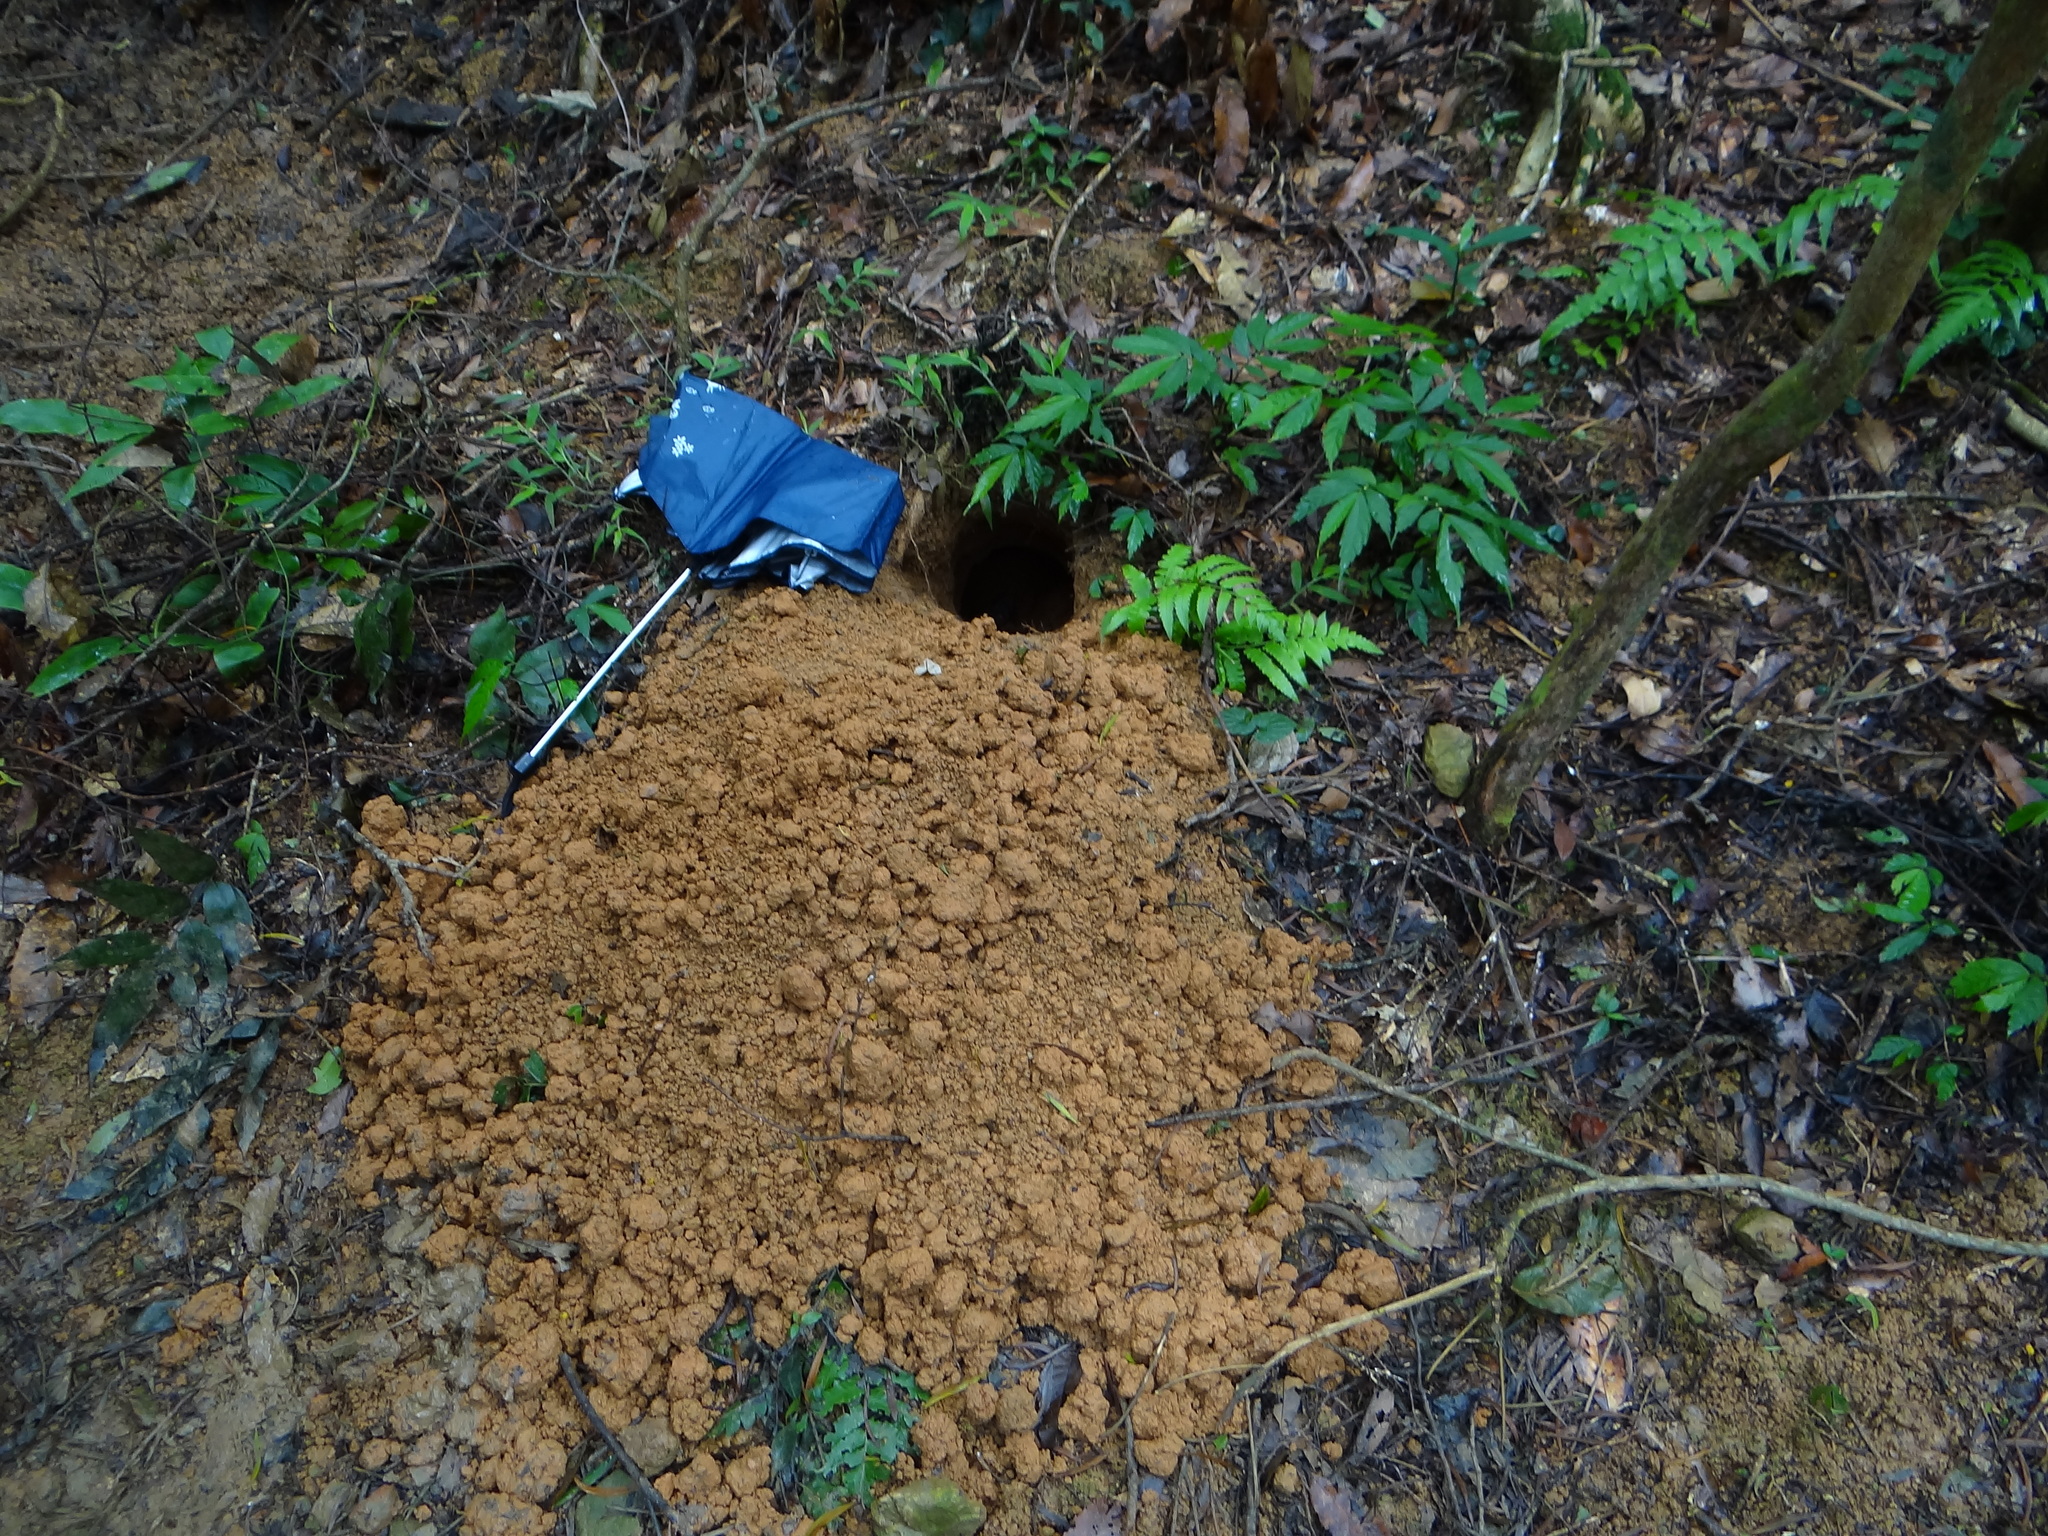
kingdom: Animalia
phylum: Chordata
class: Mammalia
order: Pholidota
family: Manidae
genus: Manis
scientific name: Manis pentadactyla
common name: Chinese pangolin
